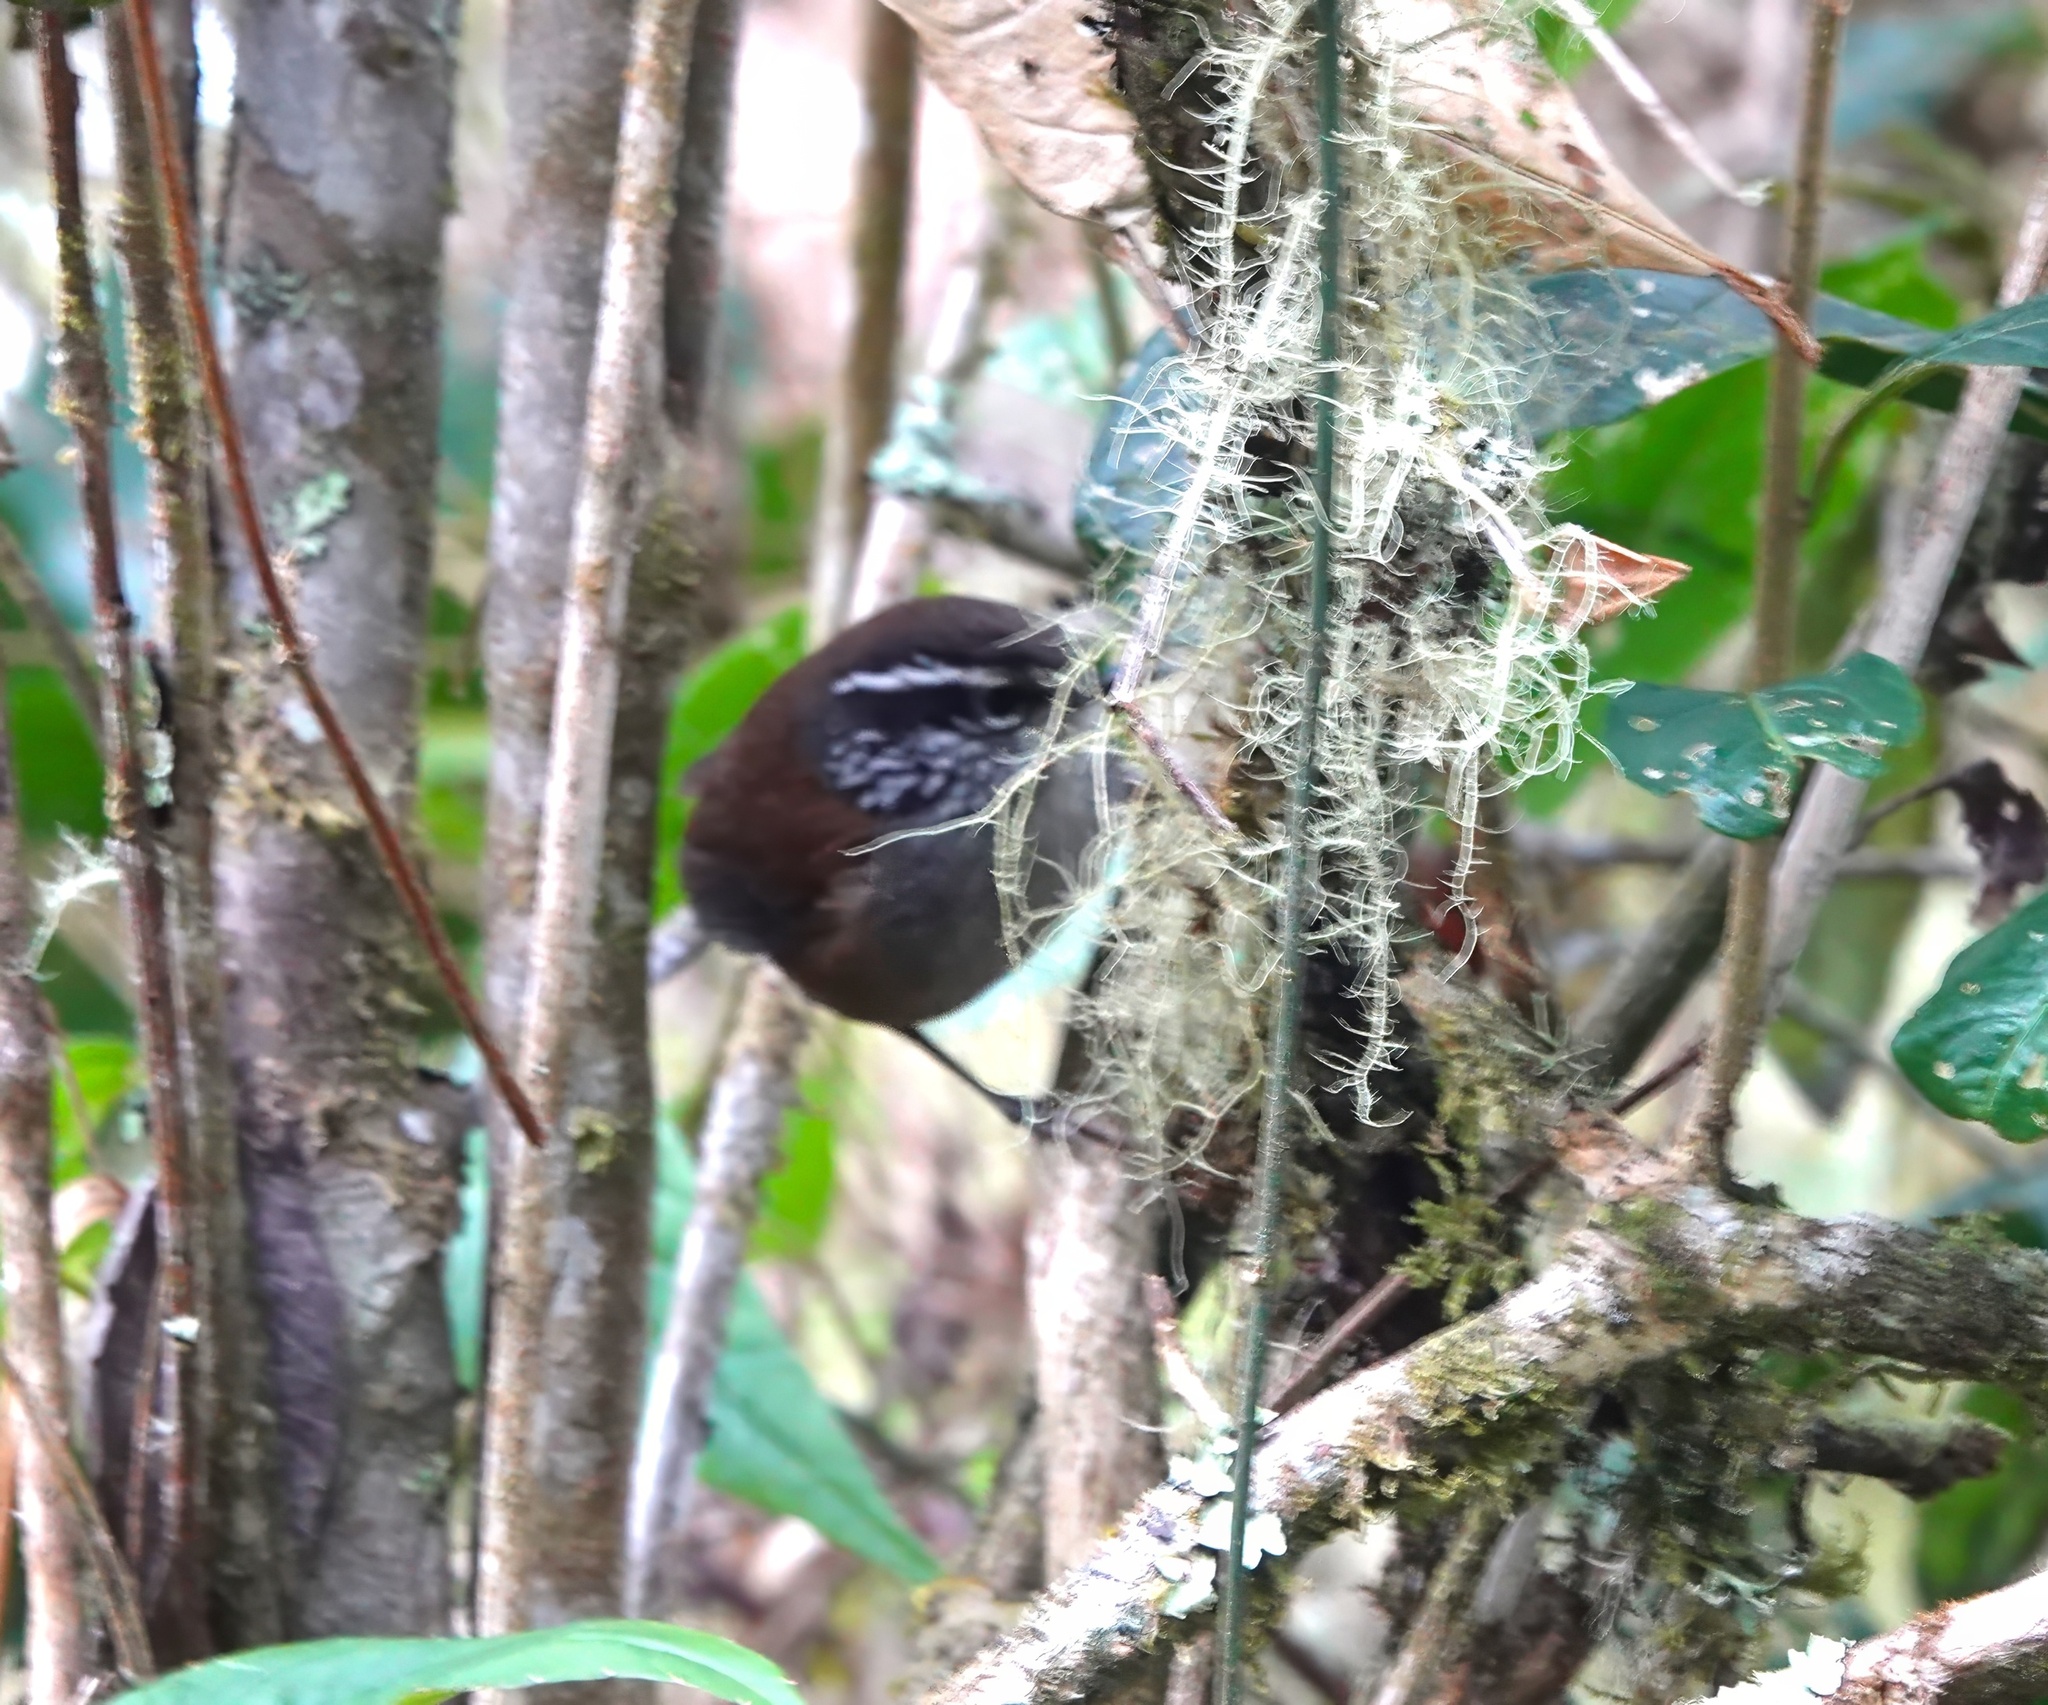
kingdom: Animalia
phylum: Chordata
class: Aves
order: Passeriformes
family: Troglodytidae
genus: Henicorhina
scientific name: Henicorhina anachoreta
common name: Hermit wood-wren
